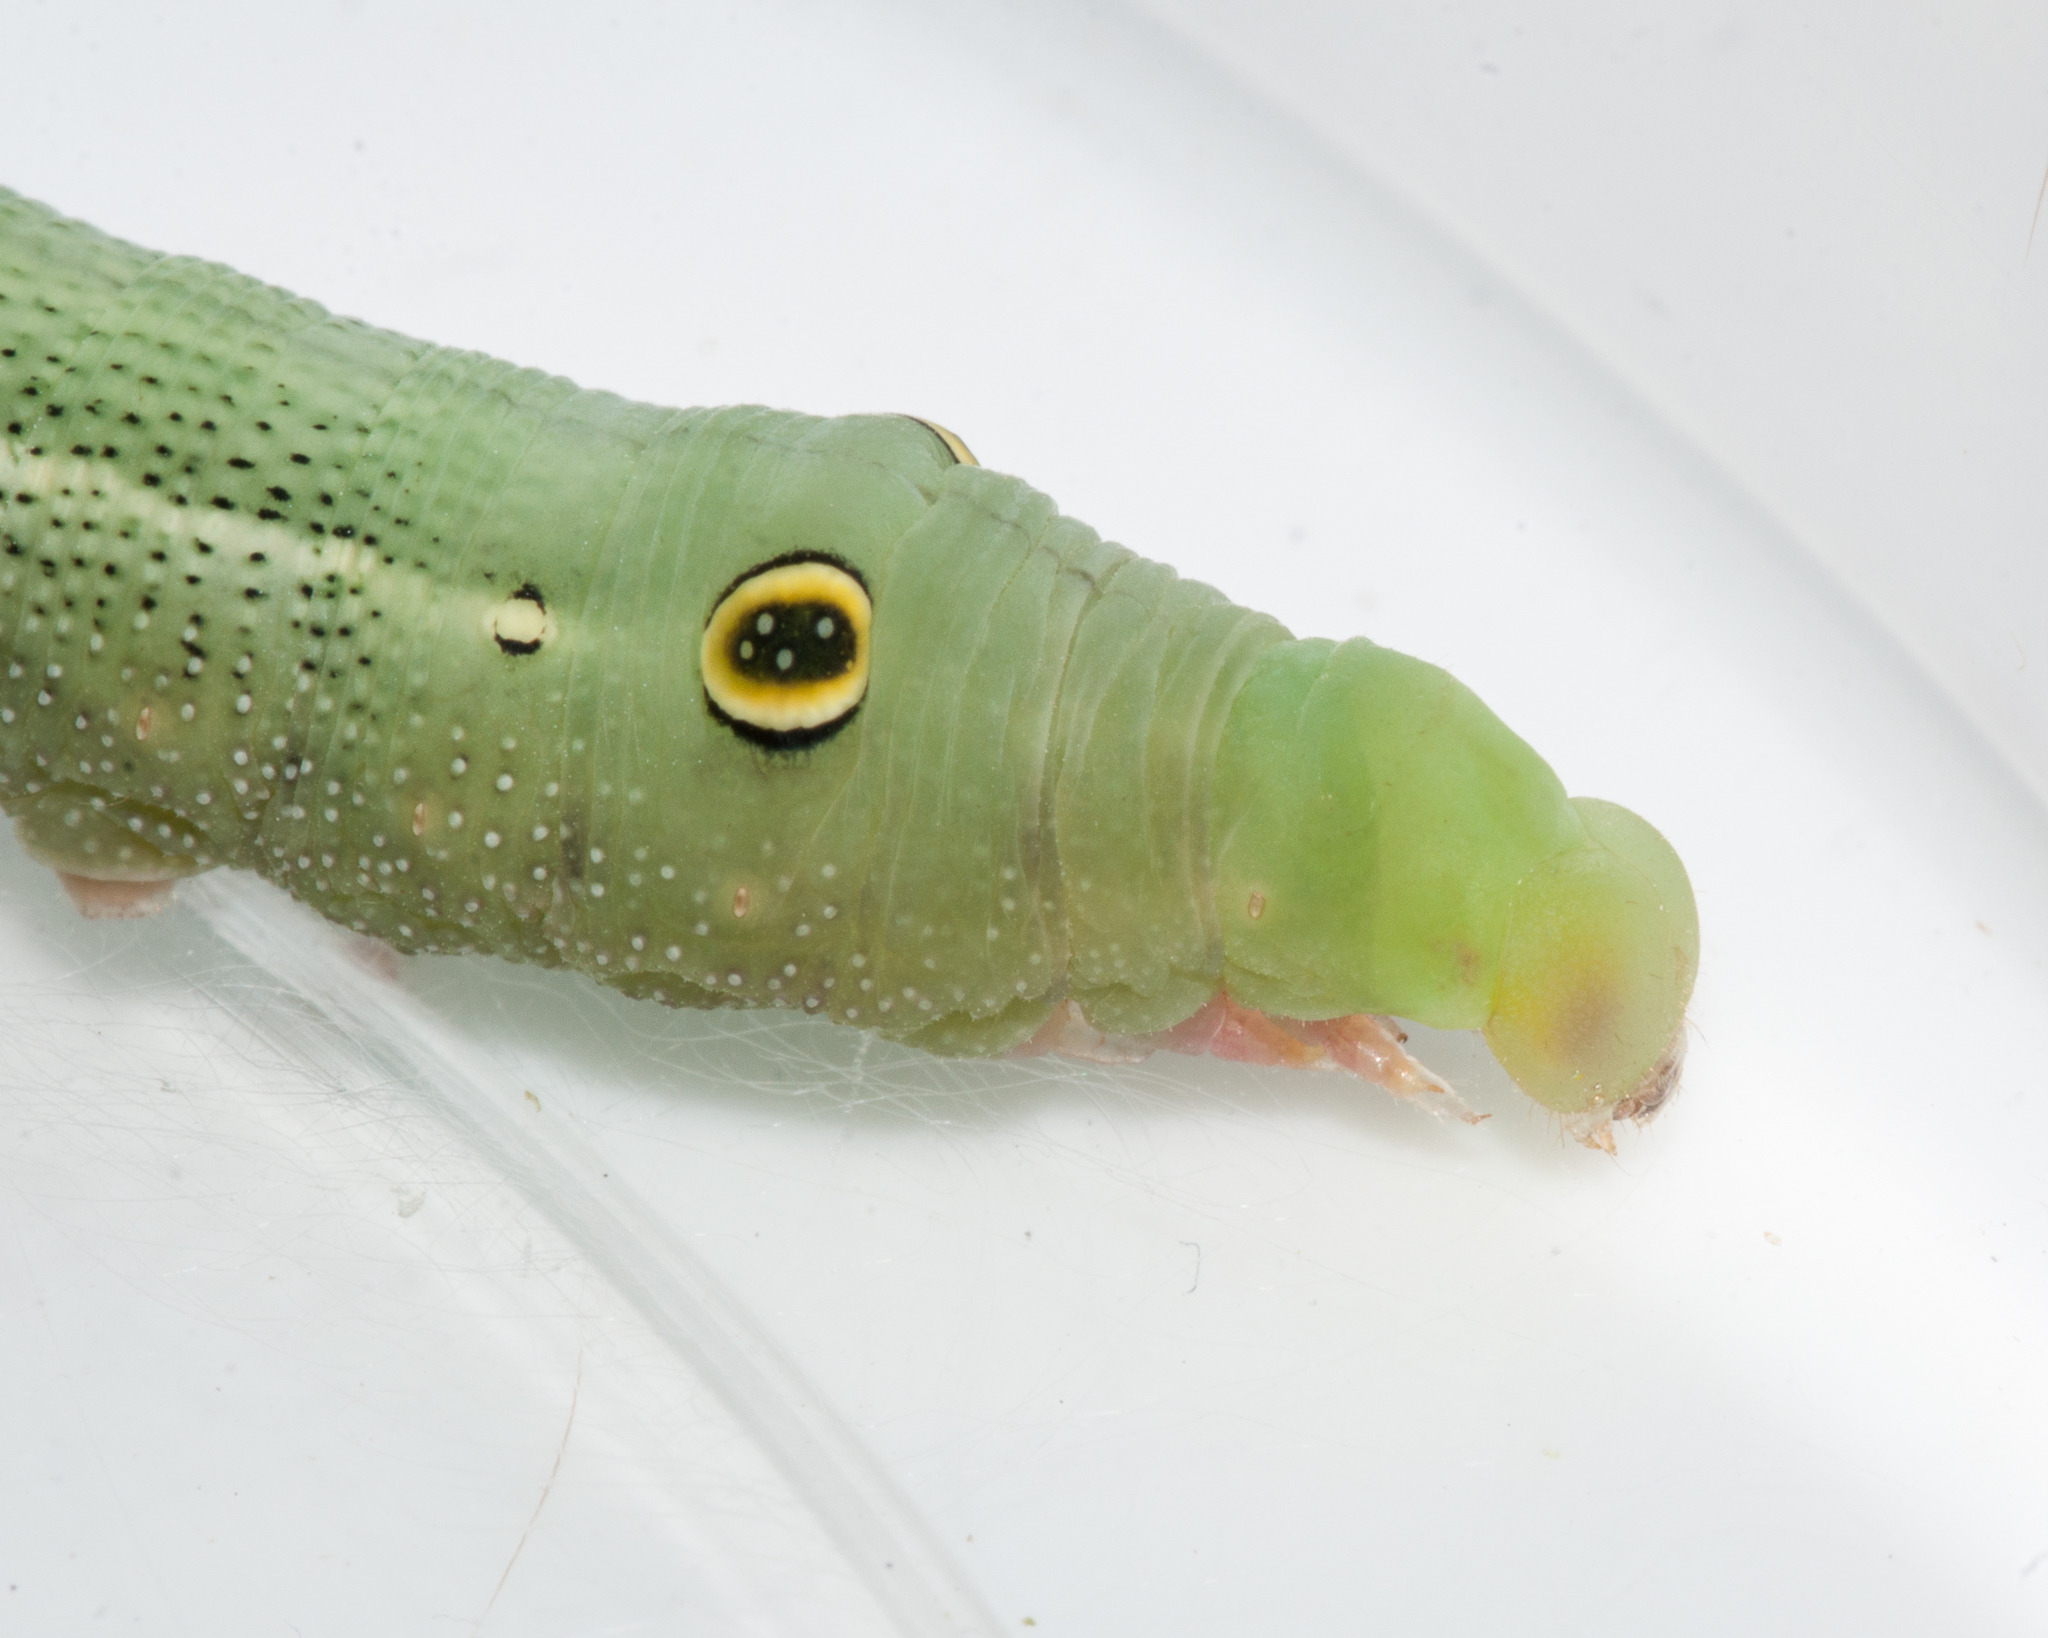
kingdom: Animalia
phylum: Arthropoda
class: Insecta
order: Lepidoptera
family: Sphingidae
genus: Hippotion
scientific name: Hippotion celerio
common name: Silver-striped hawk-moth
